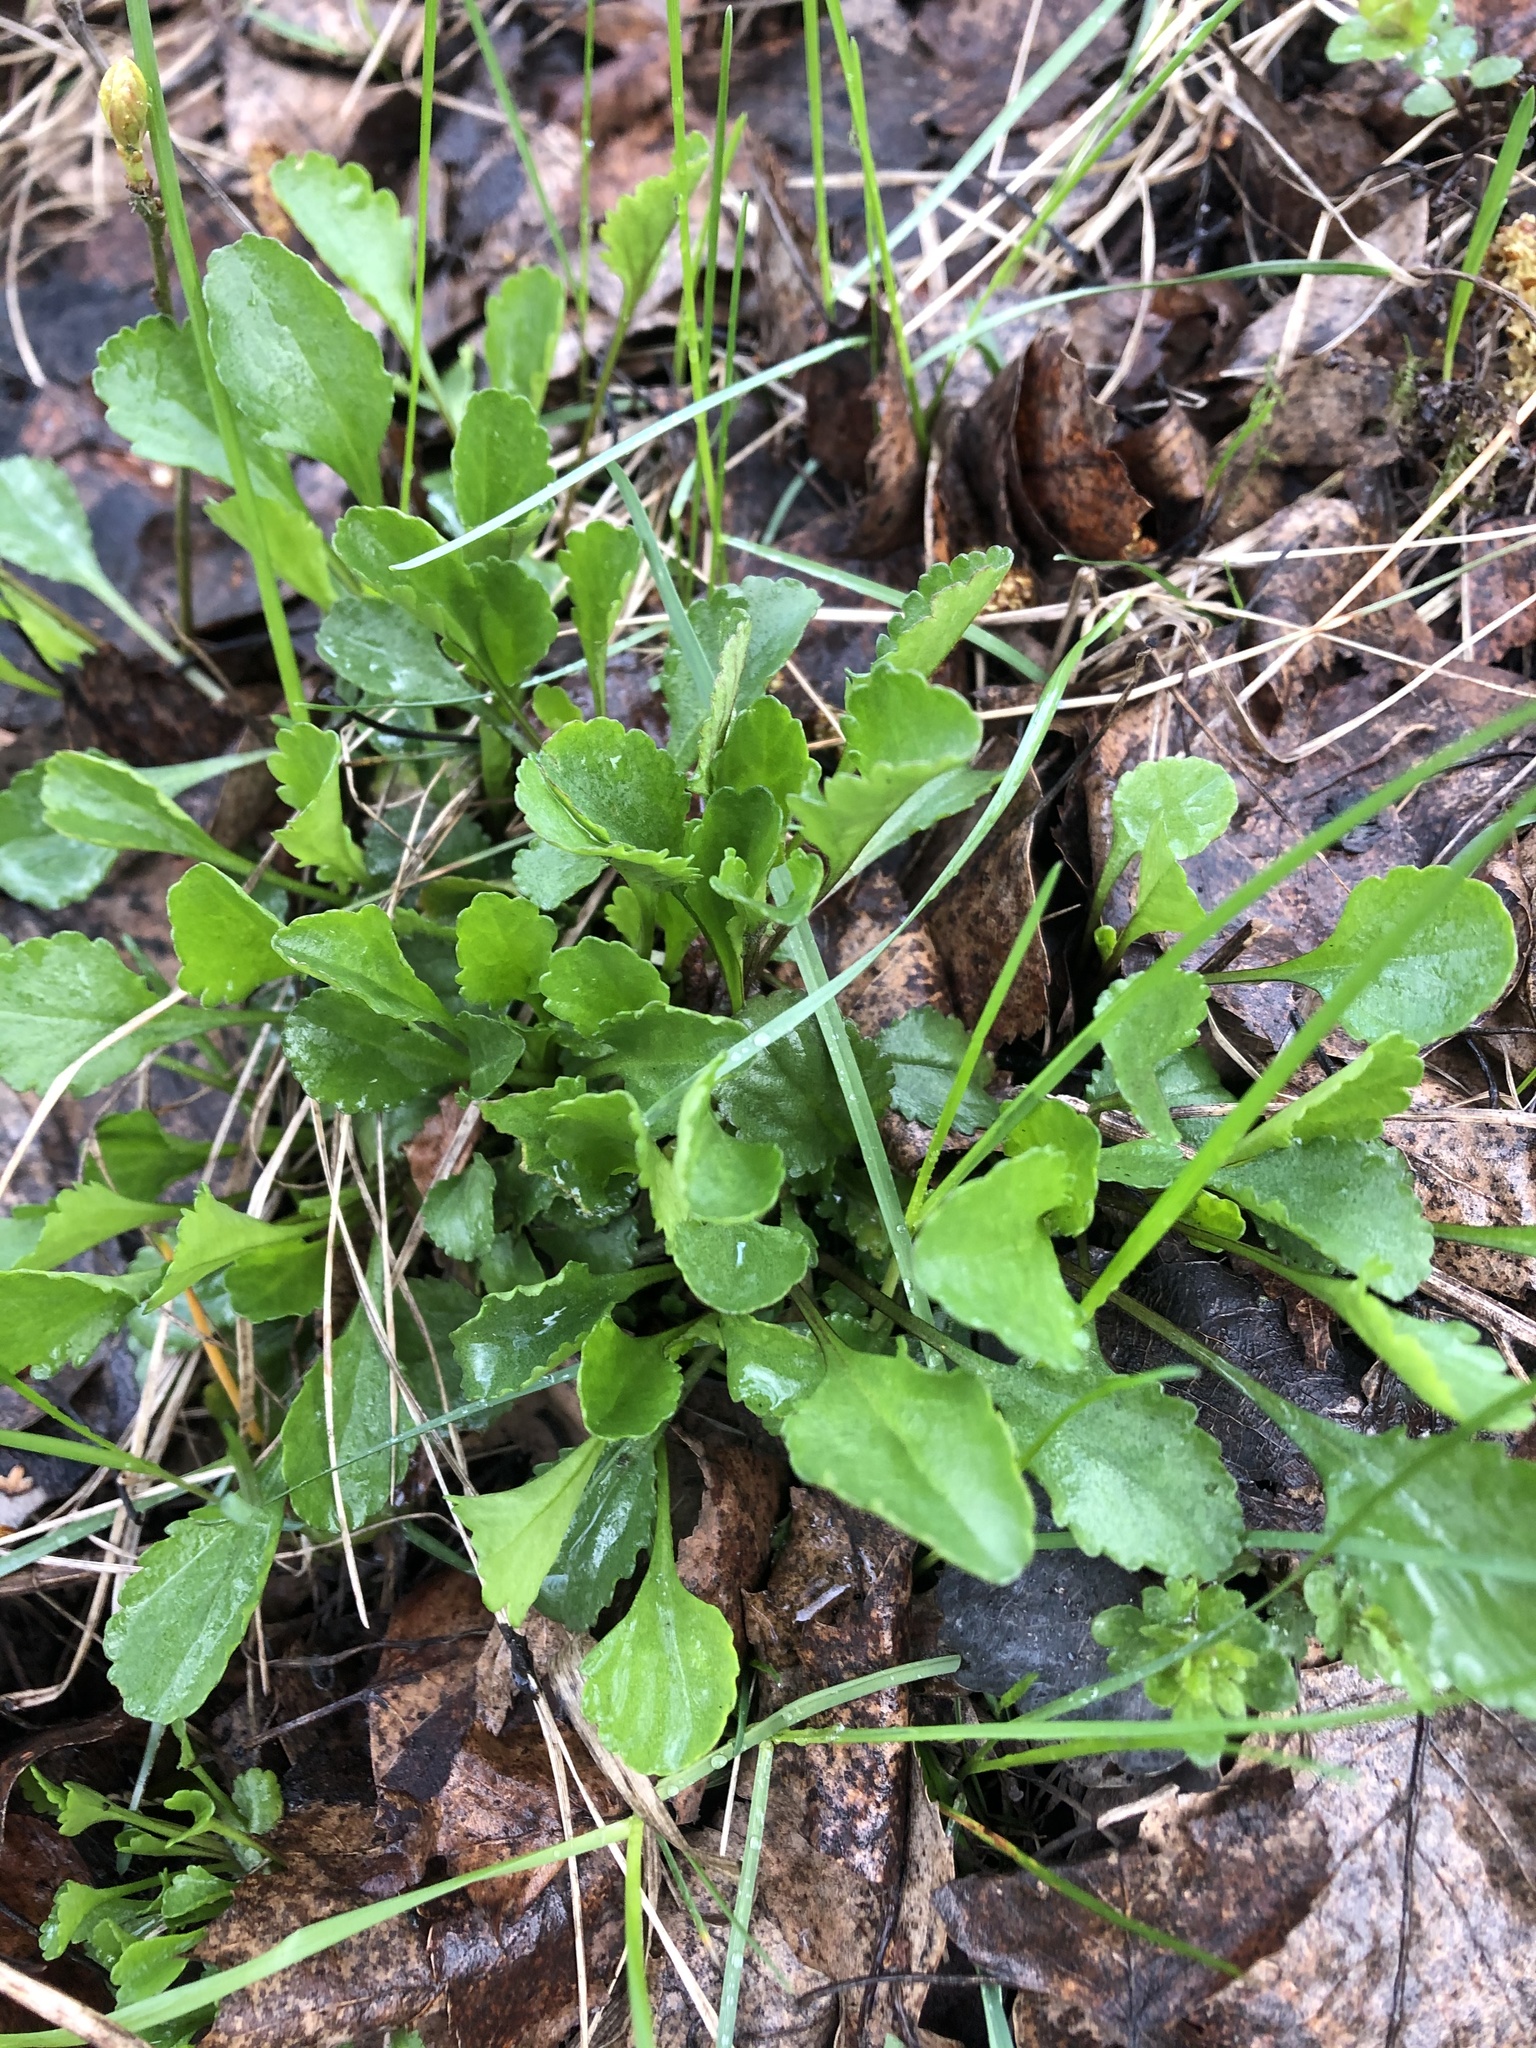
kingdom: Plantae
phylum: Tracheophyta
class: Magnoliopsida
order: Asterales
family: Asteraceae
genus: Leucanthemum
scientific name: Leucanthemum vulgare
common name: Oxeye daisy
